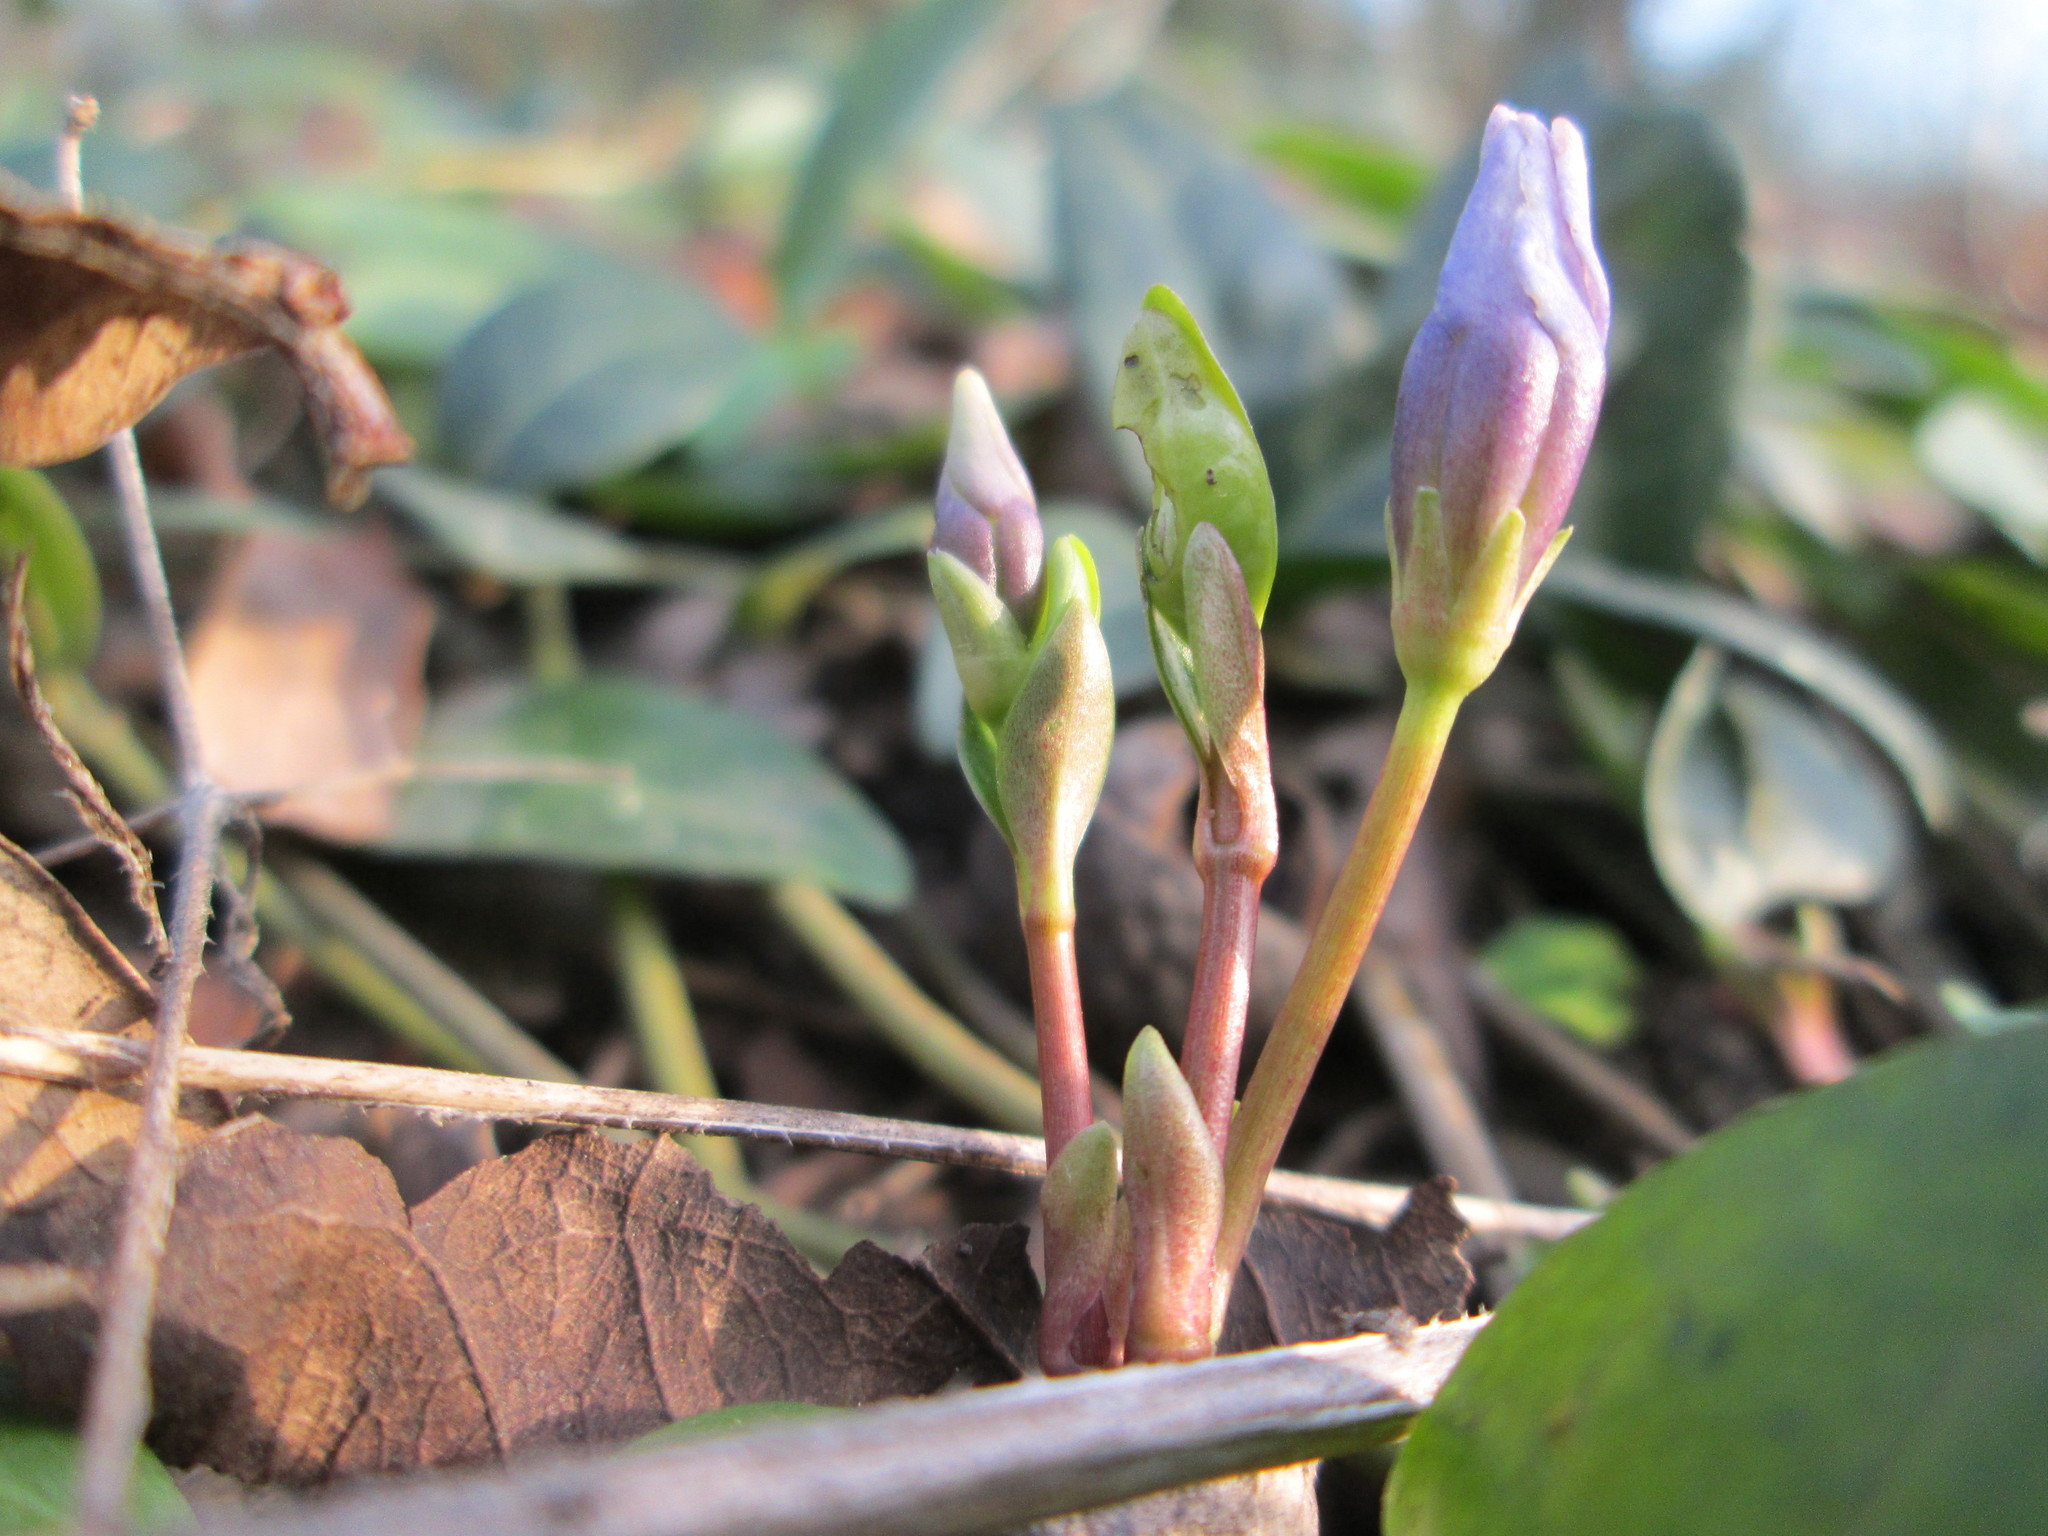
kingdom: Plantae
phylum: Tracheophyta
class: Magnoliopsida
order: Gentianales
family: Apocynaceae
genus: Vinca
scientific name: Vinca minor
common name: Lesser periwinkle
